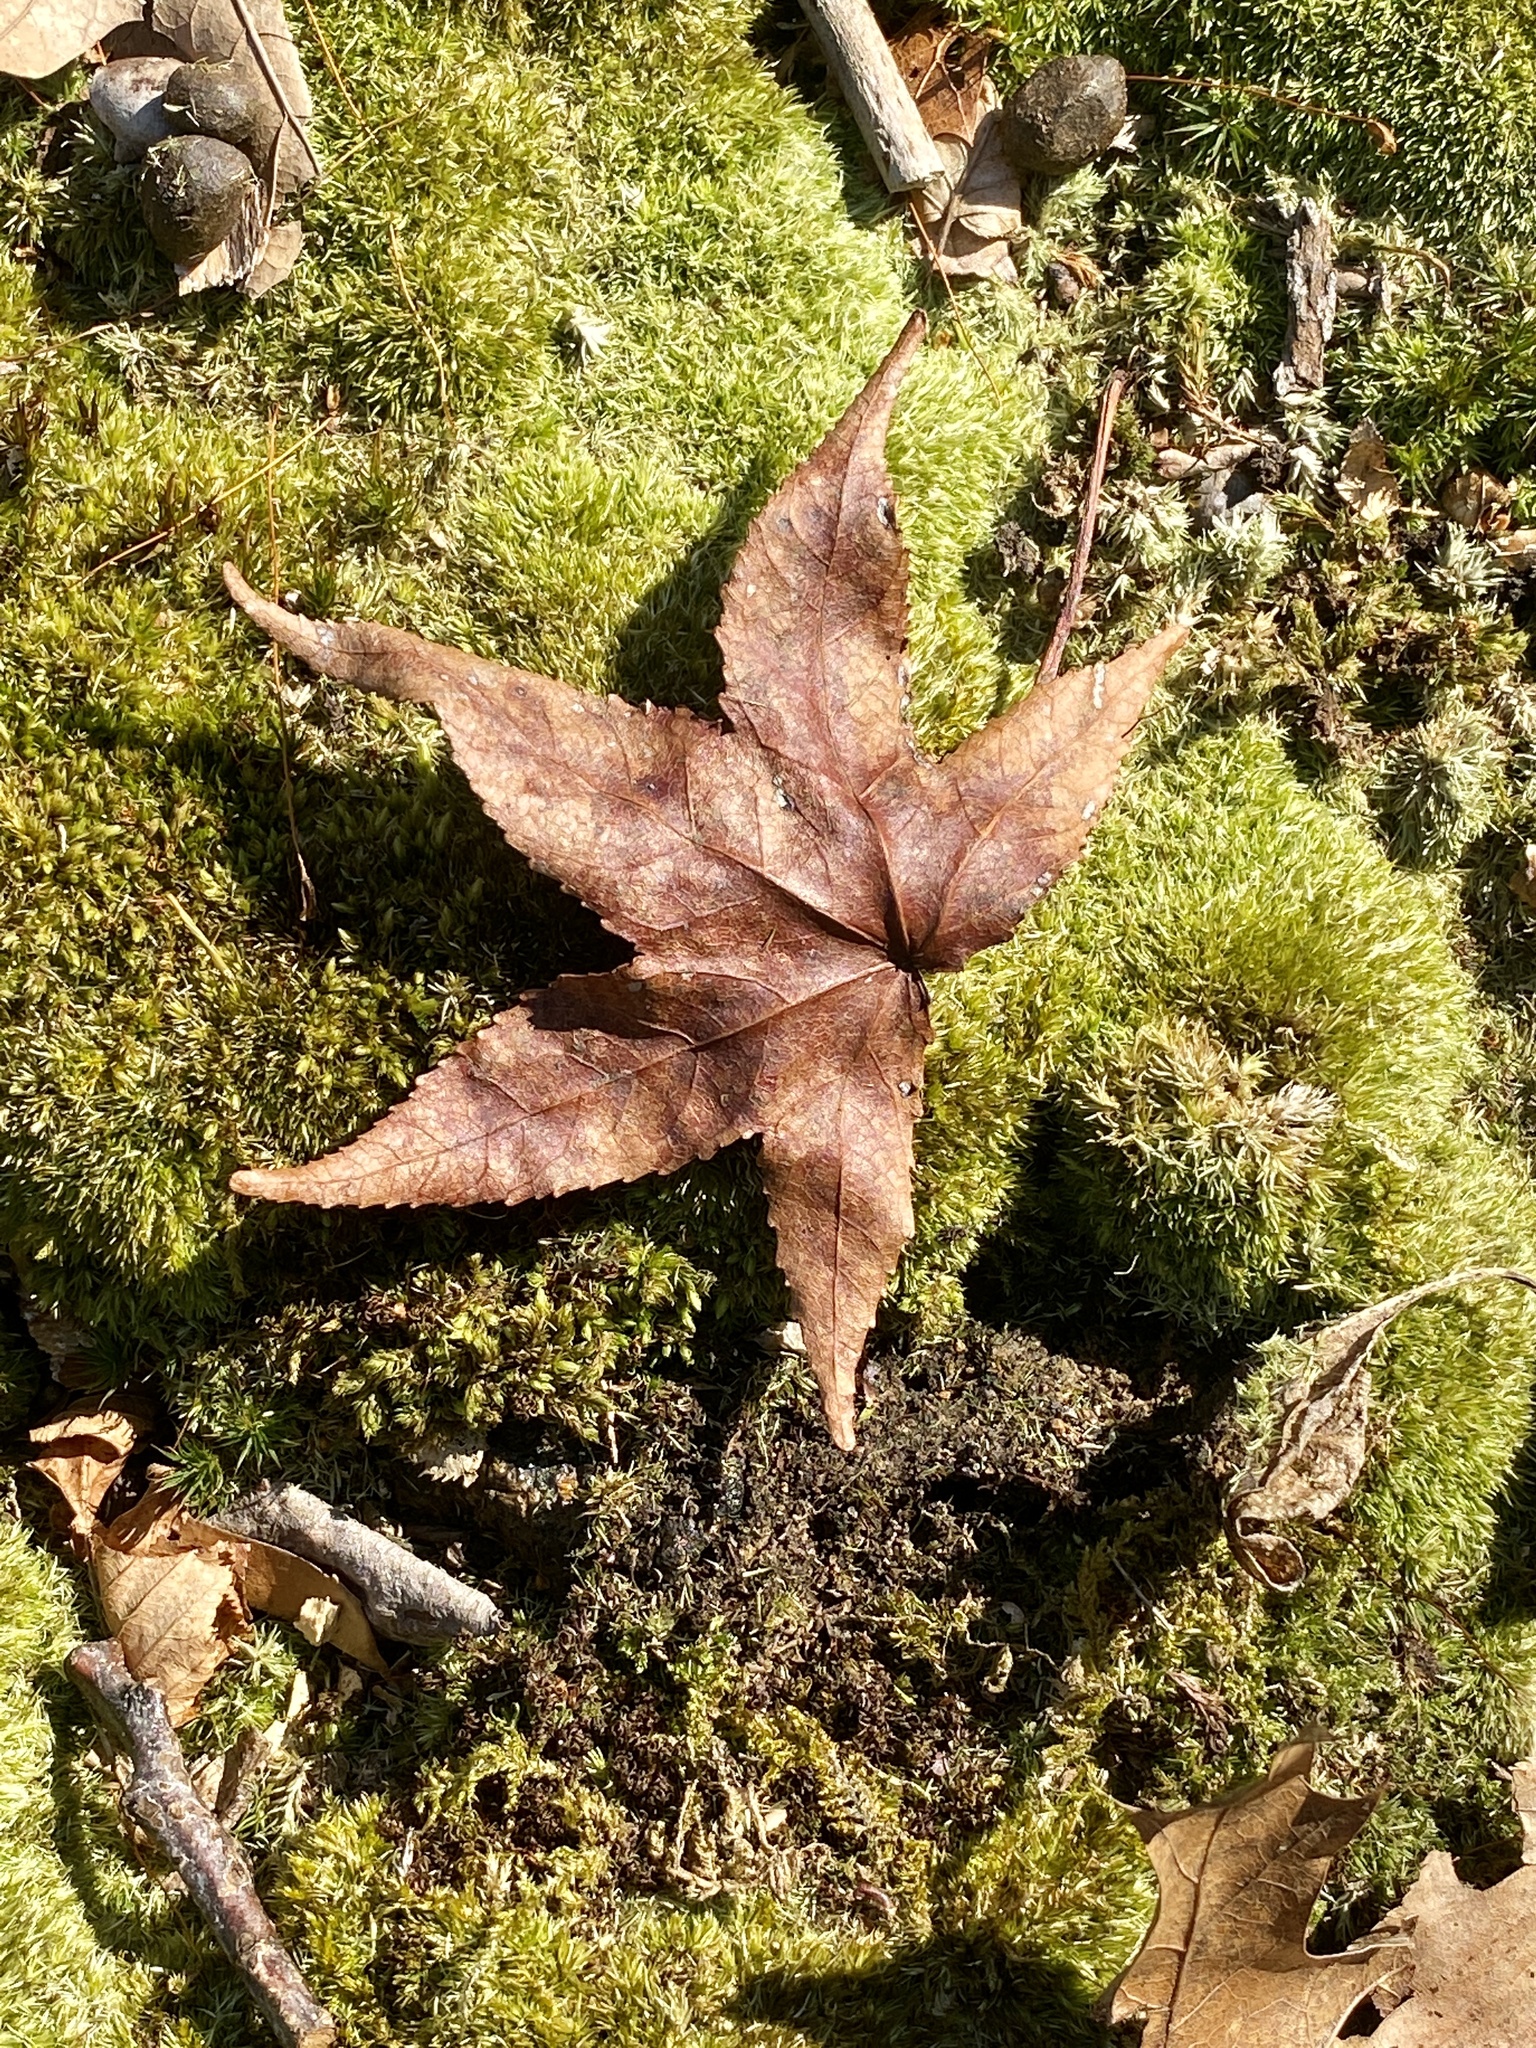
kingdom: Plantae
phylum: Tracheophyta
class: Magnoliopsida
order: Saxifragales
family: Altingiaceae
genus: Liquidambar
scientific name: Liquidambar styraciflua
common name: Sweet gum
